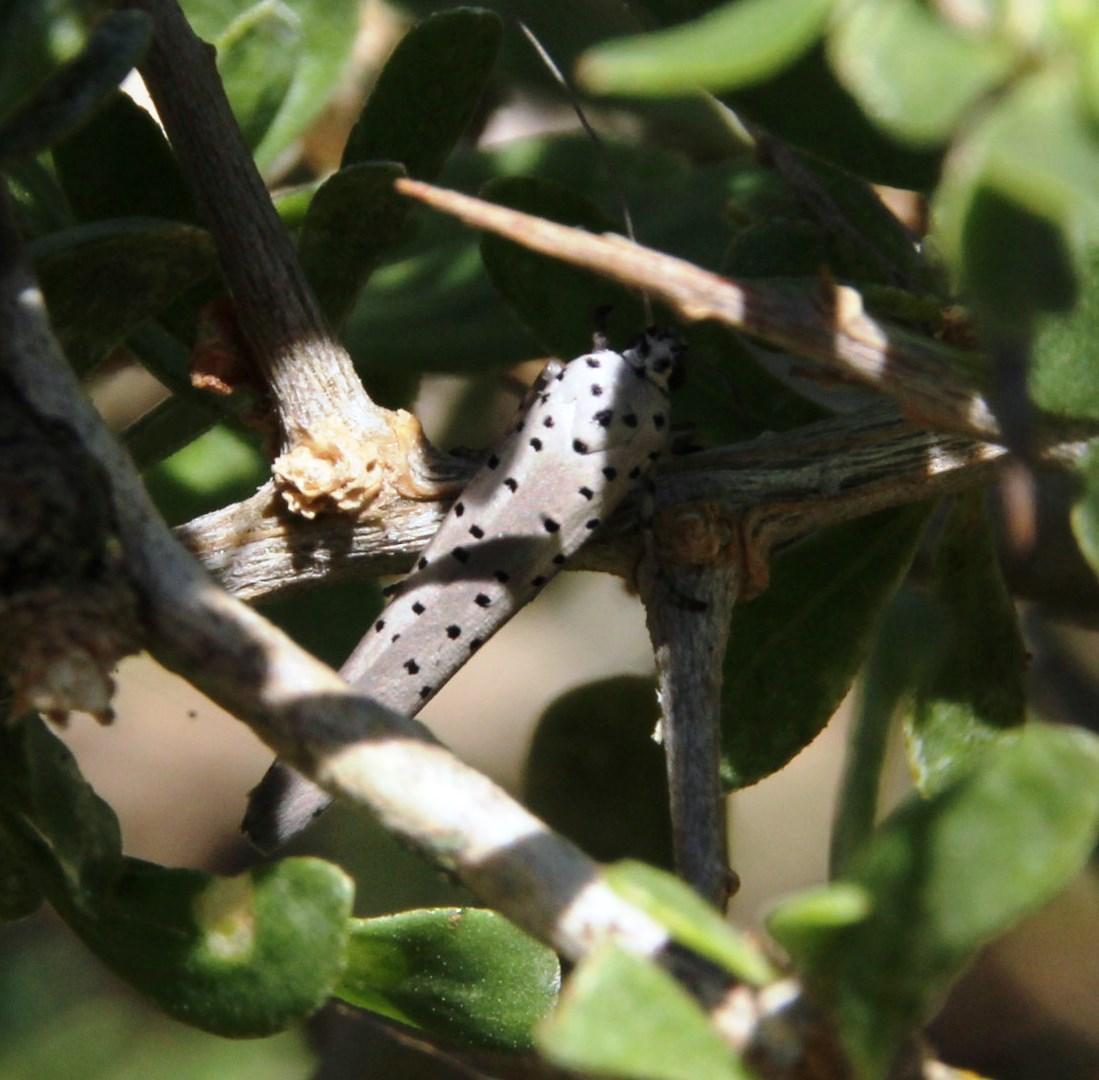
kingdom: Animalia
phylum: Arthropoda
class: Insecta
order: Lepidoptera
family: Yponomeutidae
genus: Yponomeuta
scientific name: Yponomeuta fumigata
